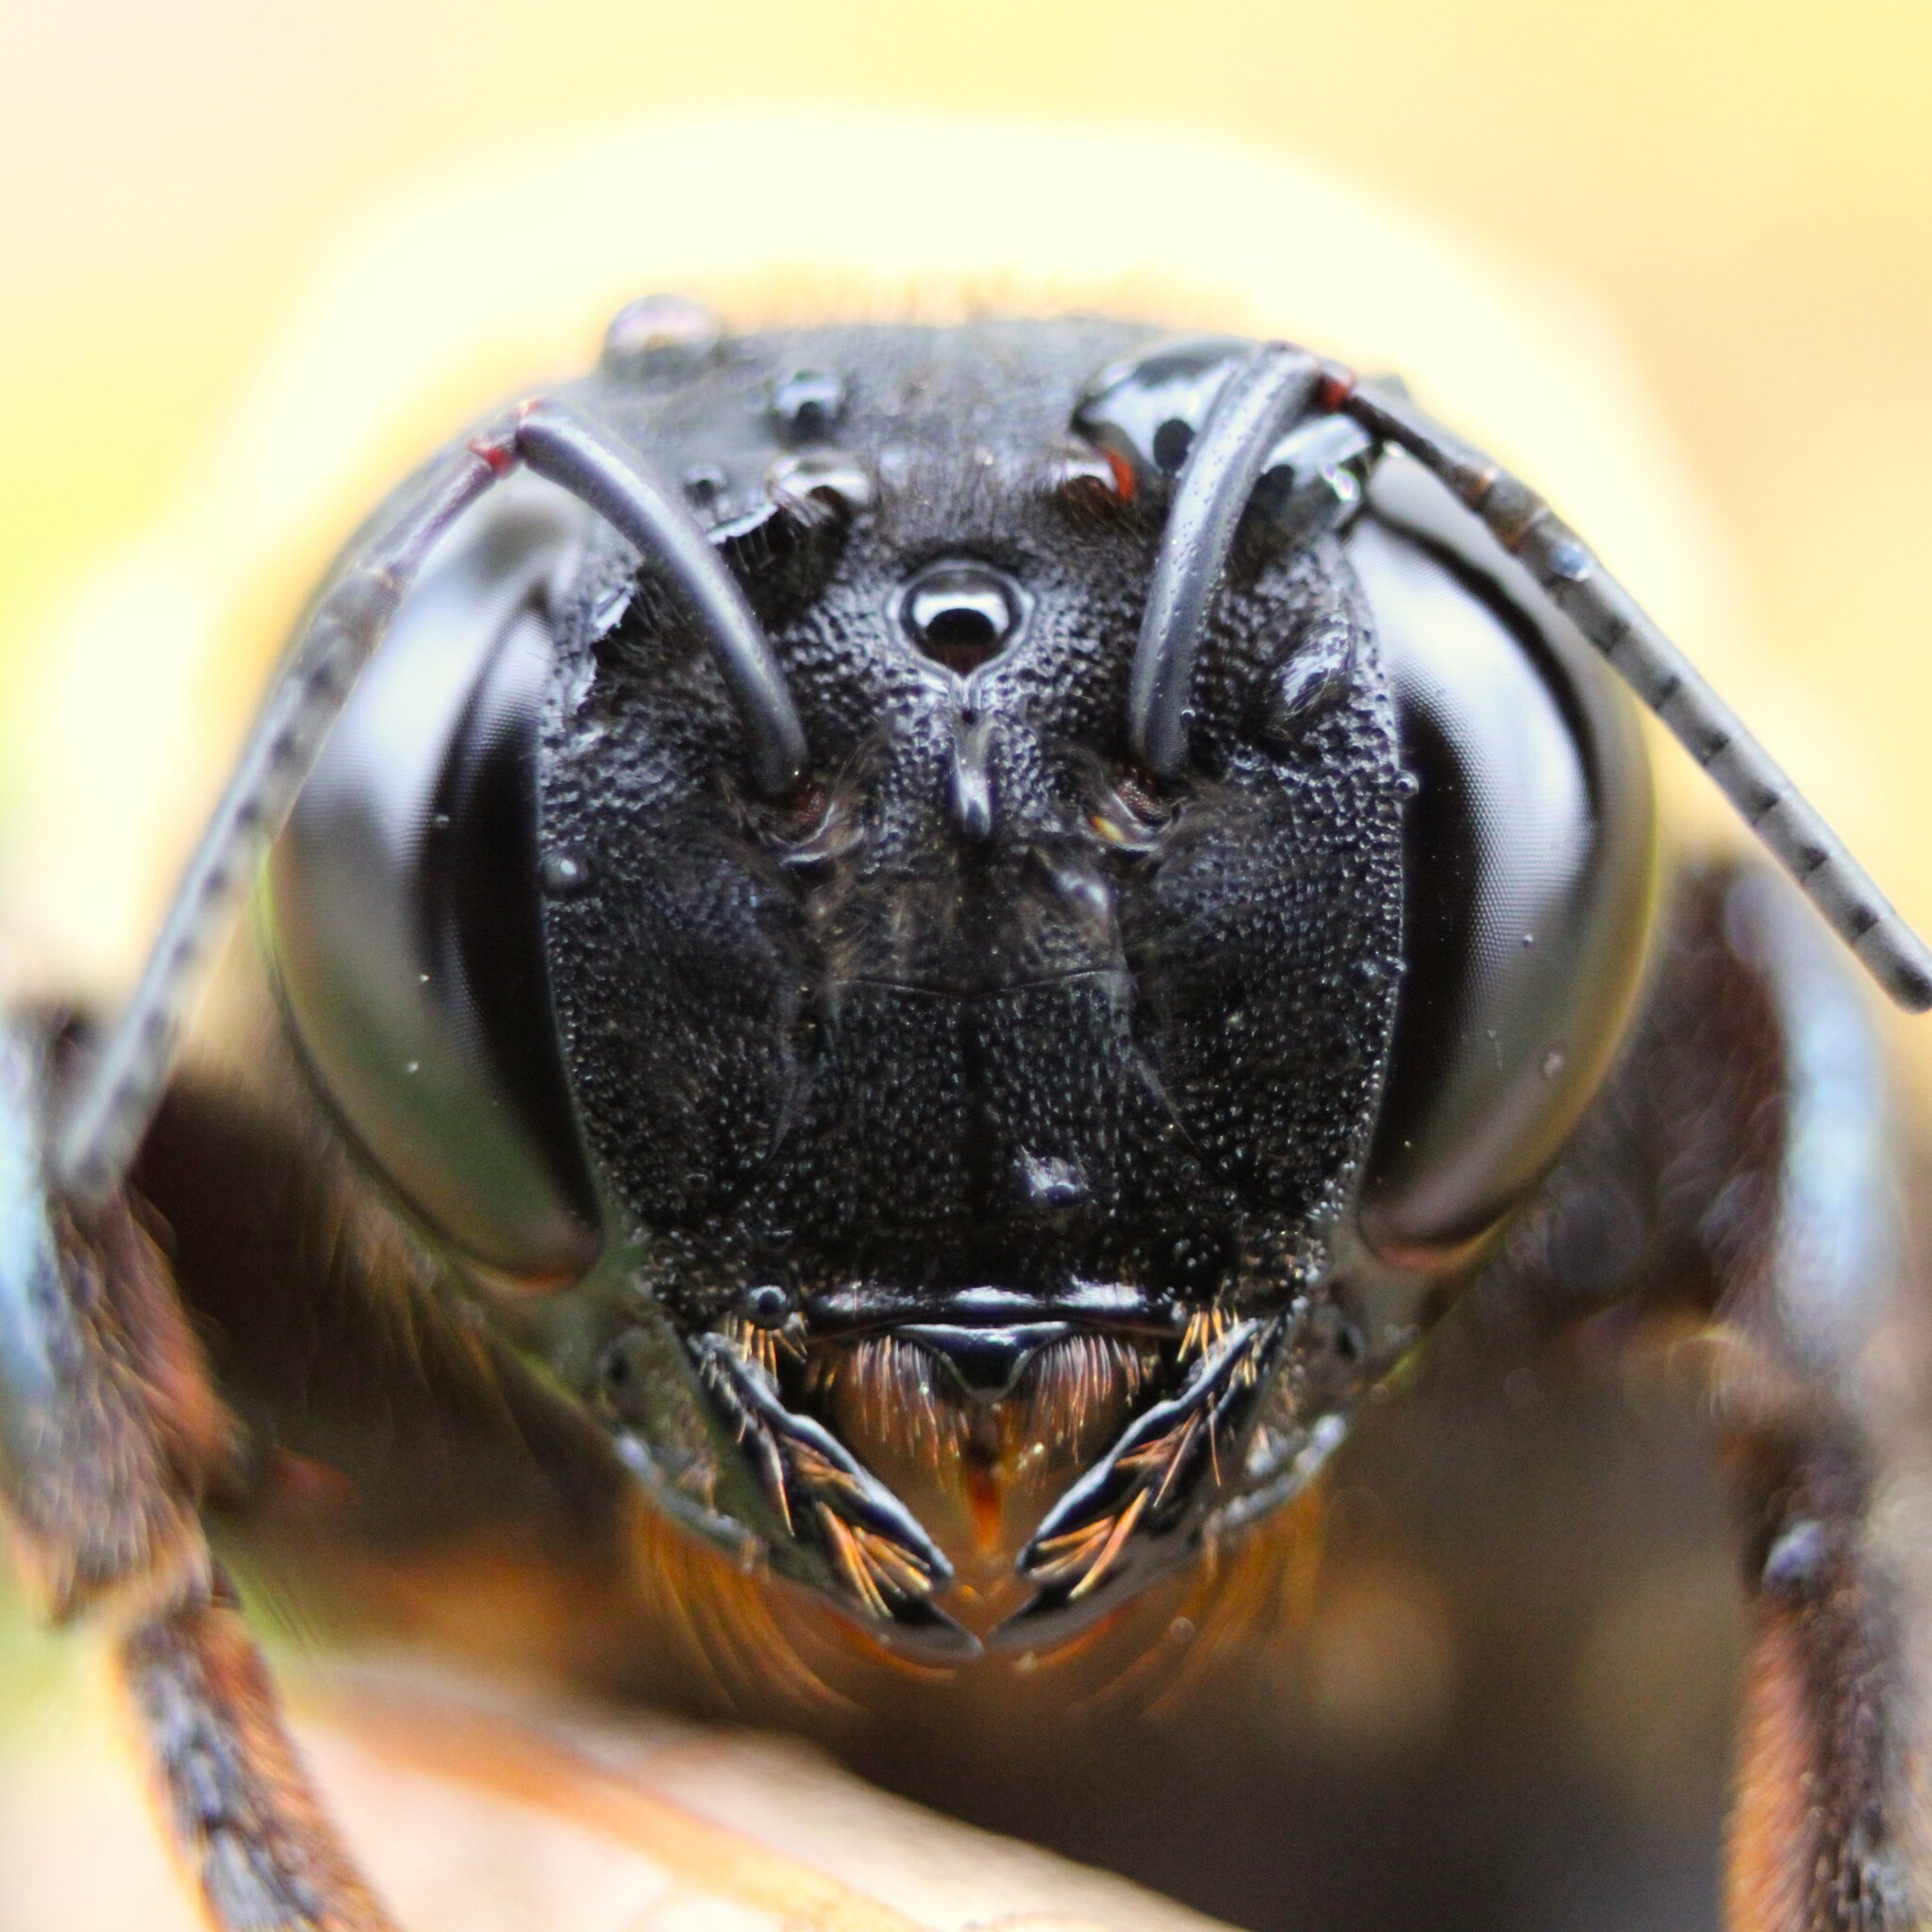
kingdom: Animalia
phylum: Arthropoda
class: Insecta
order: Hymenoptera
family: Apidae
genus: Xylocopa
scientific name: Xylocopa virginica
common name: Carpenter bee
